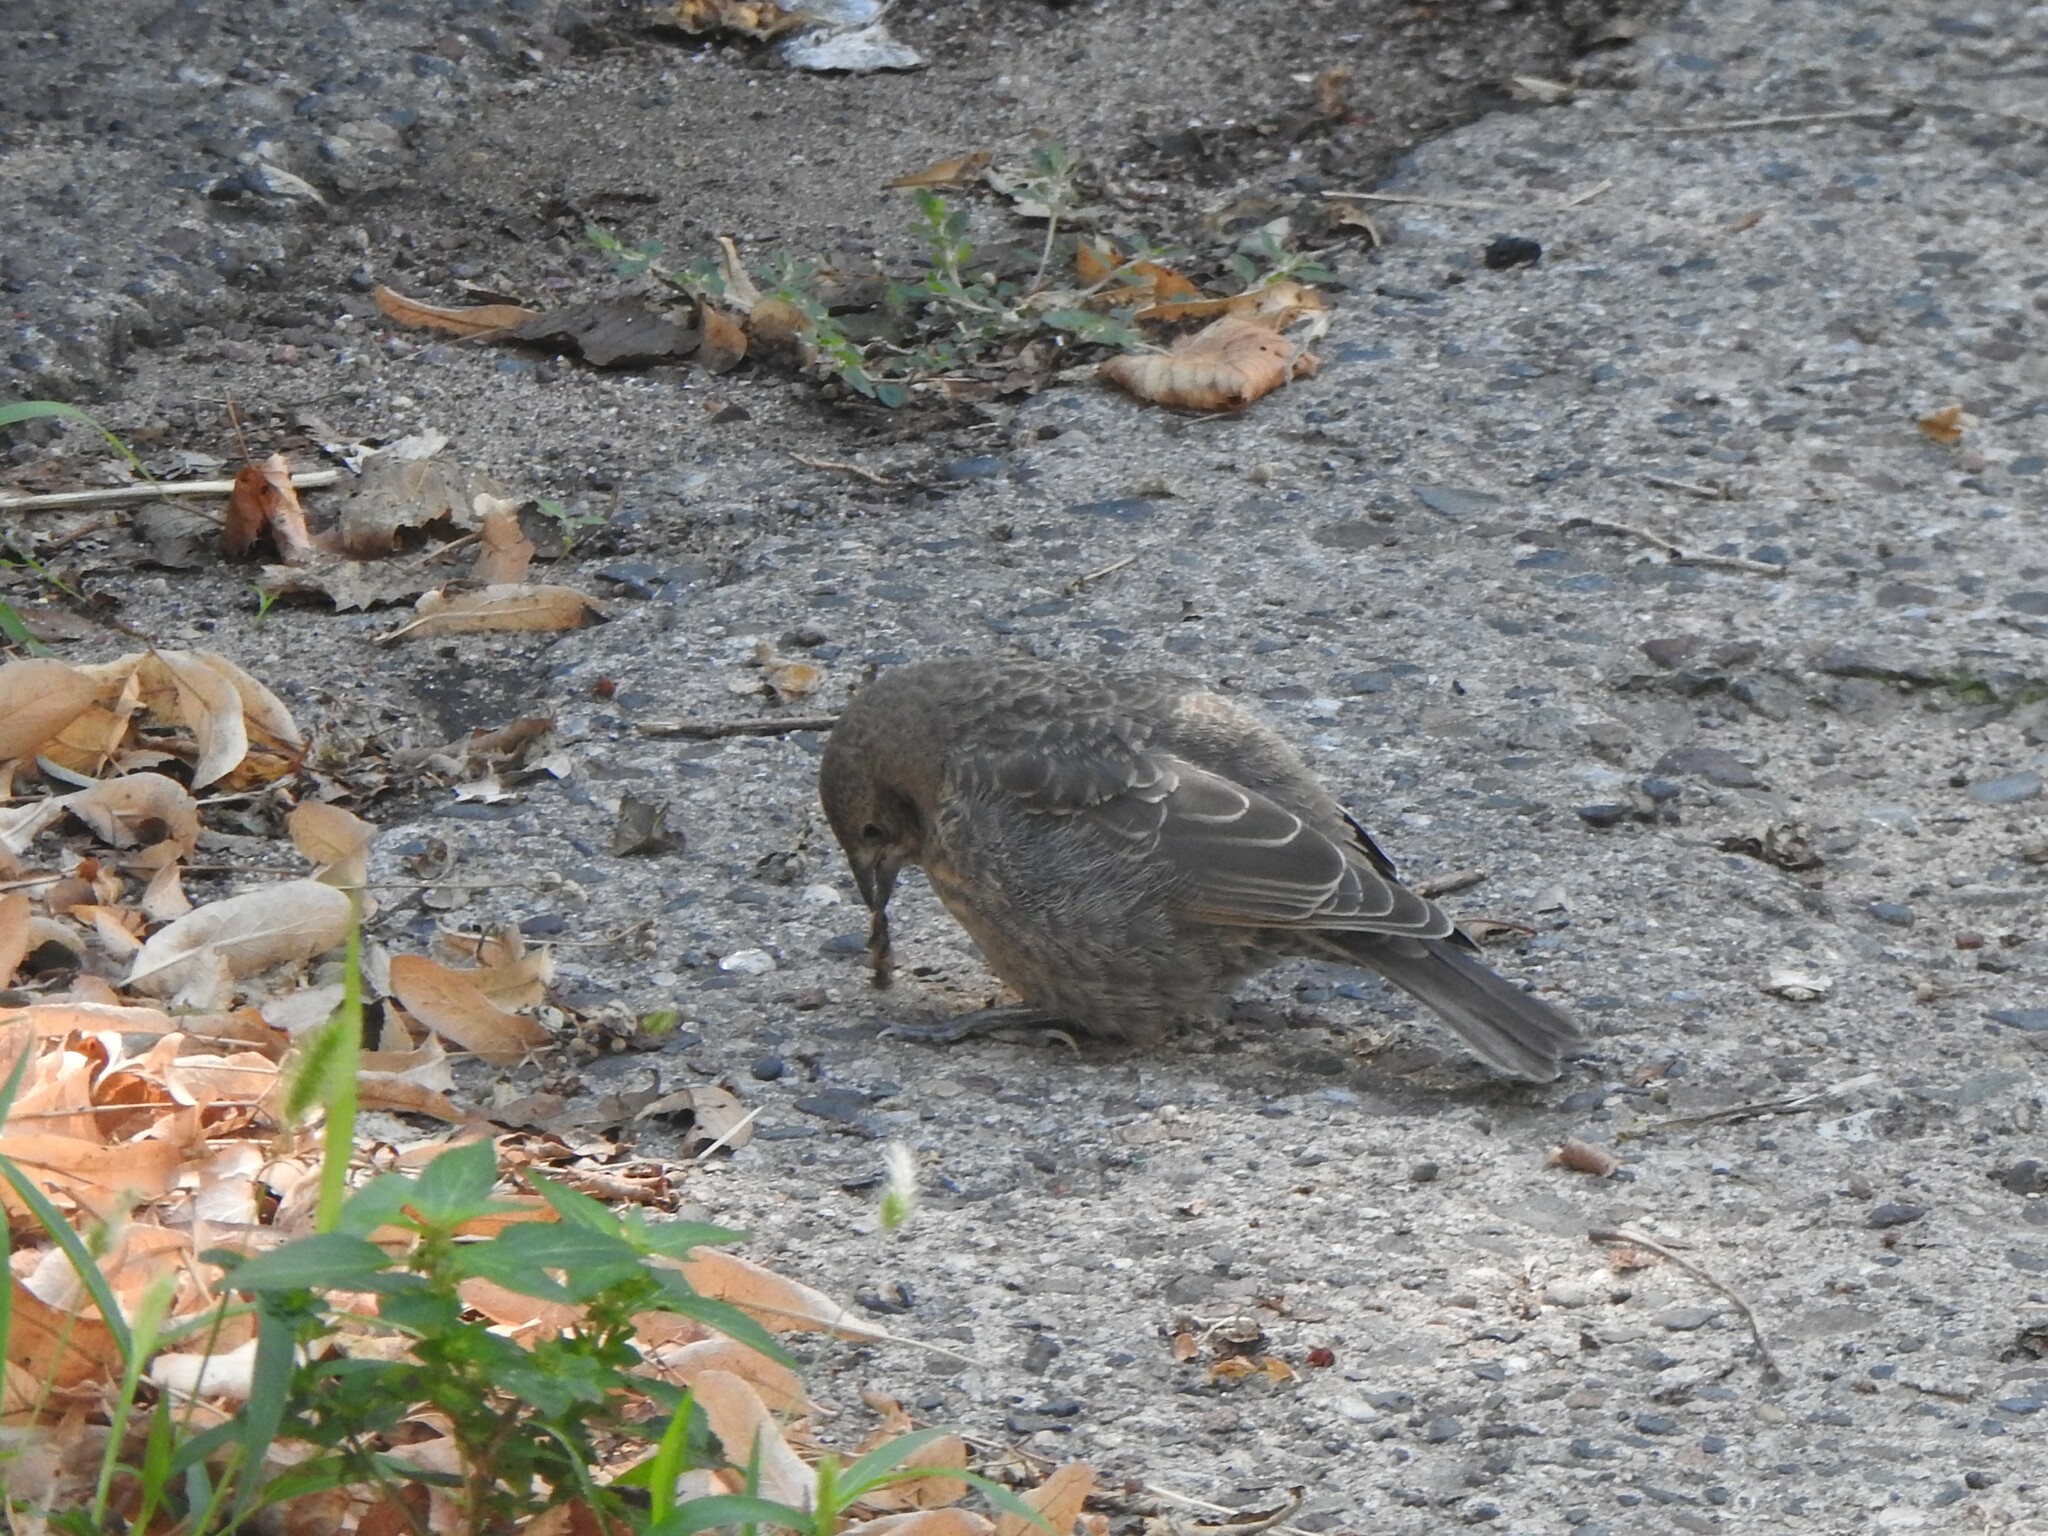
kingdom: Animalia
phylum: Chordata
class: Aves
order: Passeriformes
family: Icteridae
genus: Molothrus
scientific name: Molothrus ater
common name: Brown-headed cowbird
